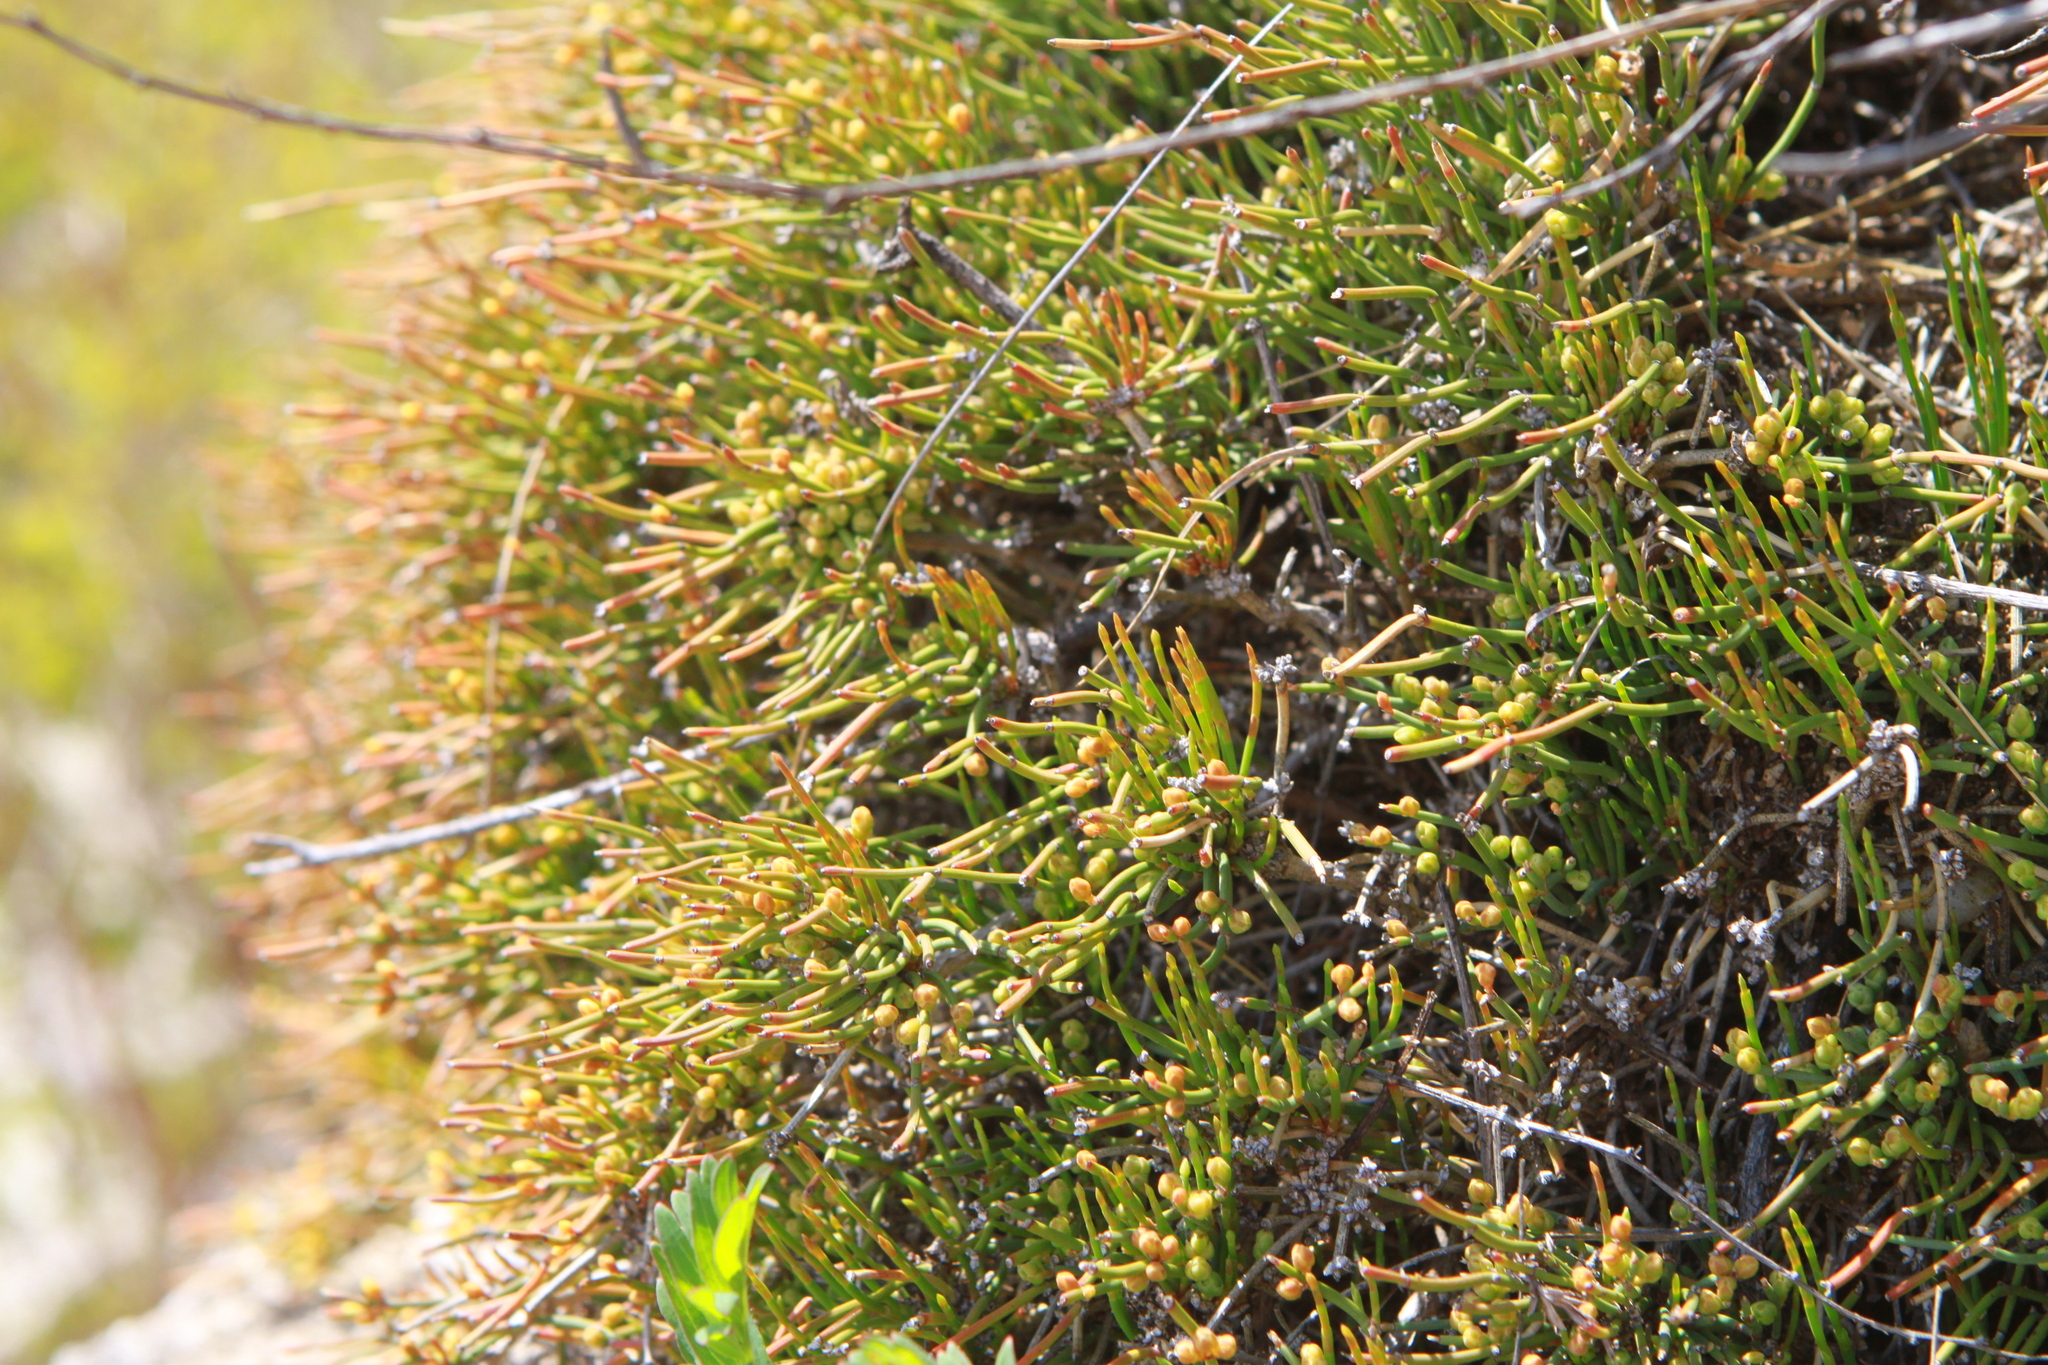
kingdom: Plantae
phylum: Tracheophyta
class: Gnetopsida
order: Ephedrales
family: Ephedraceae
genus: Ephedra
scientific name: Ephedra monosperma
